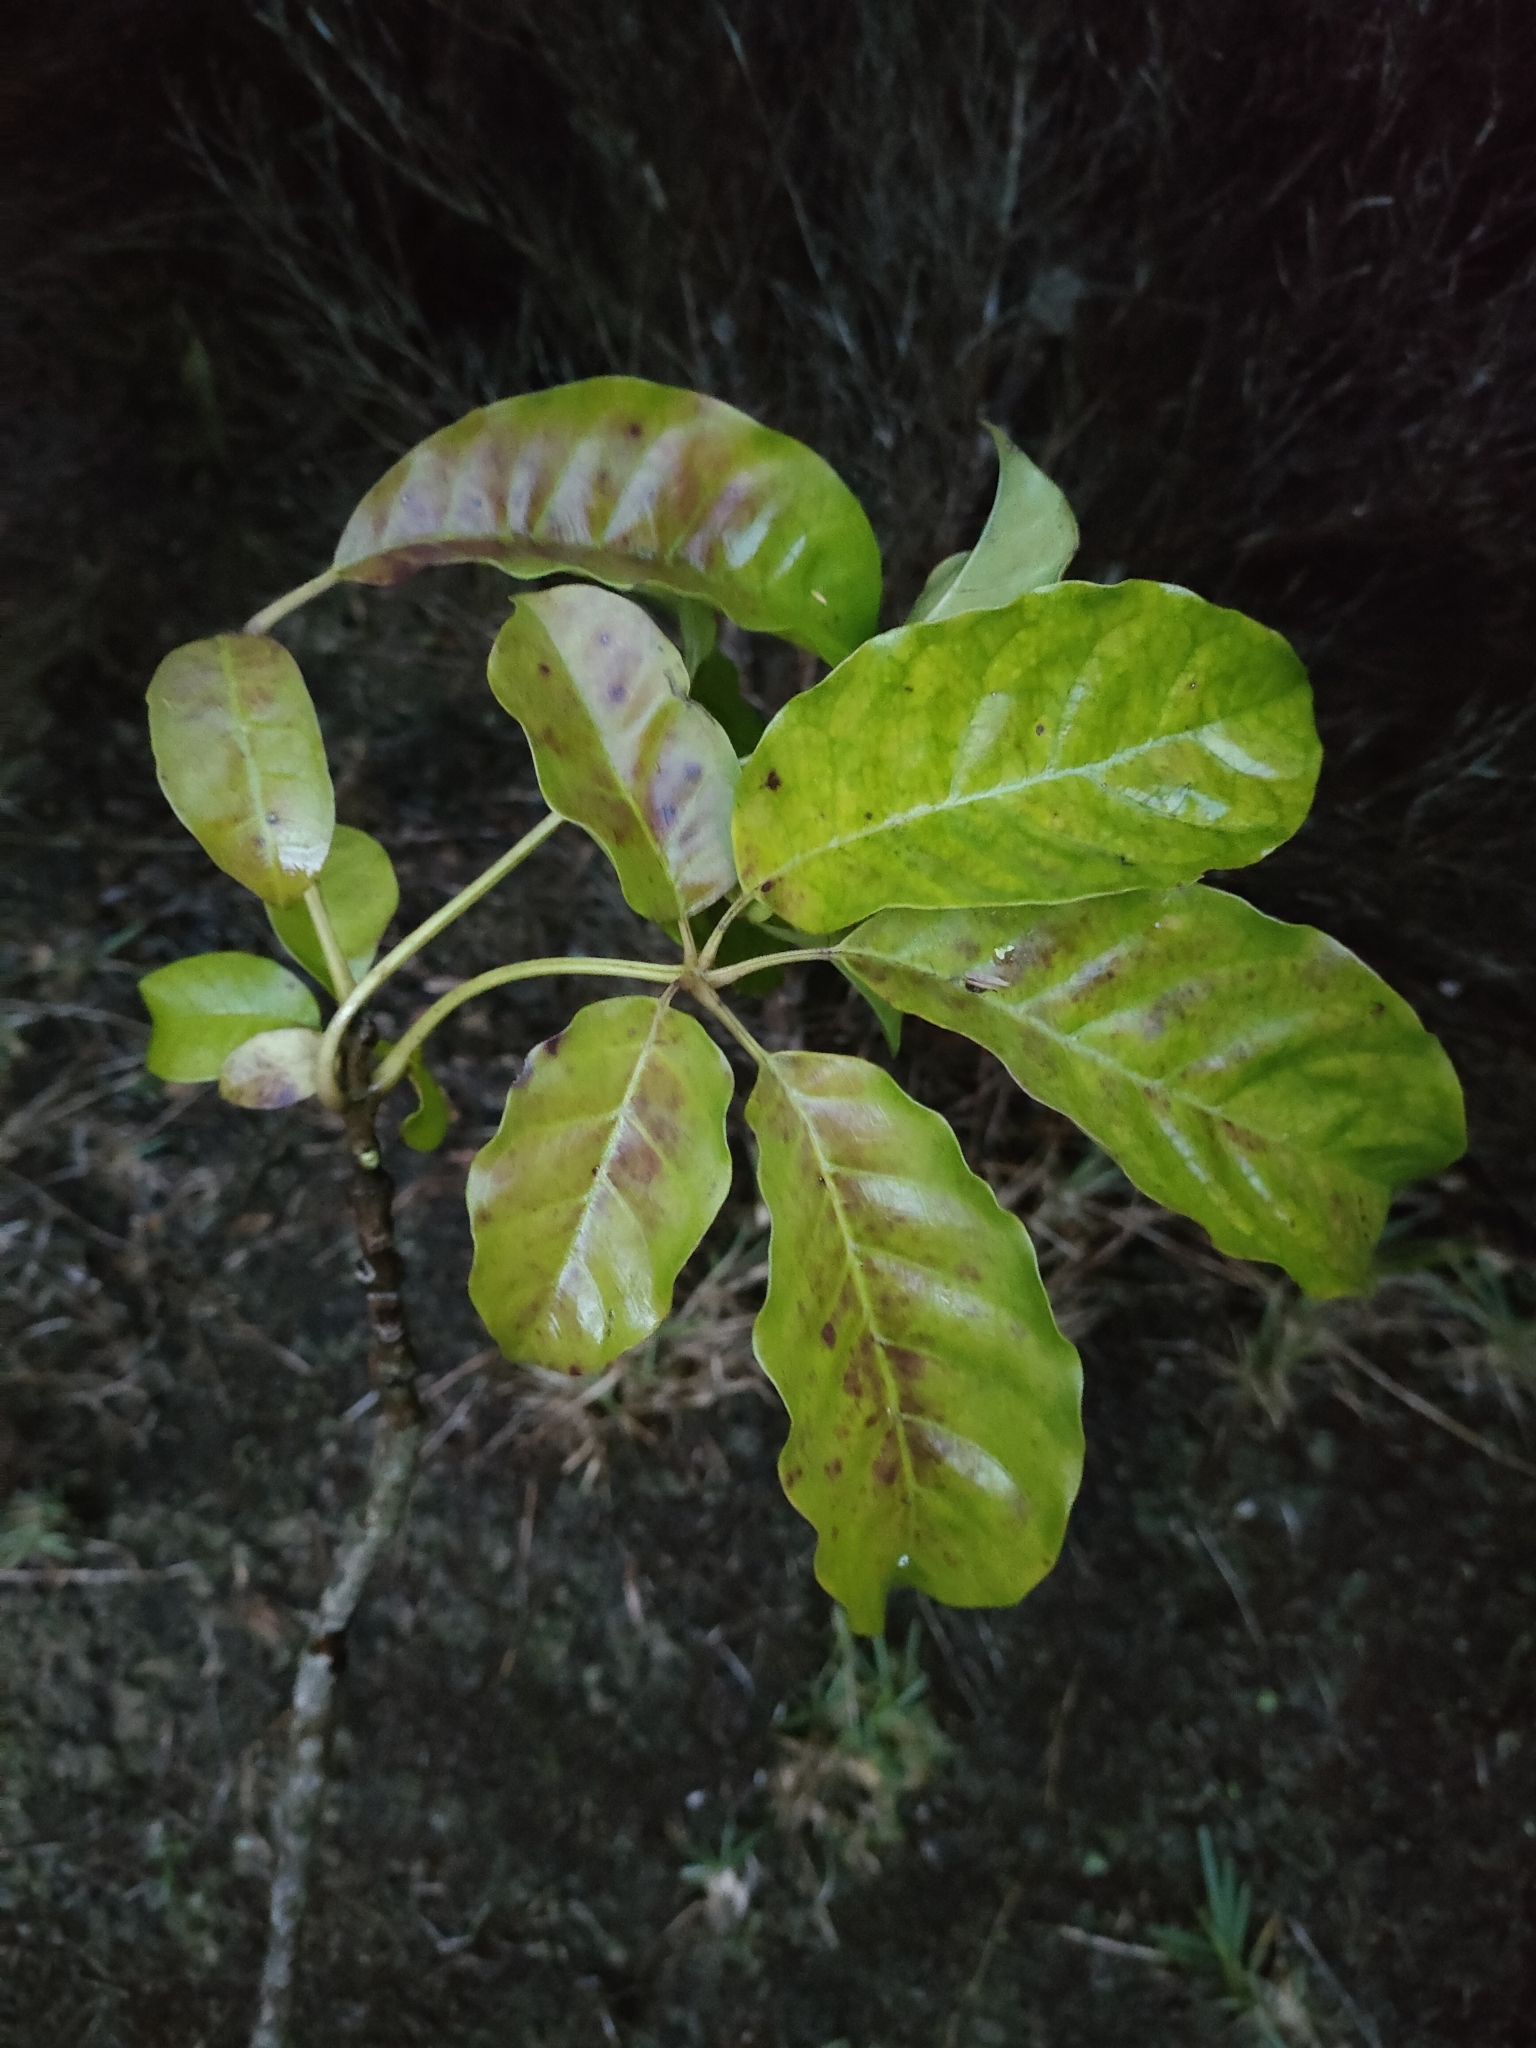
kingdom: Plantae
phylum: Tracheophyta
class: Magnoliopsida
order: Lamiales
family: Lamiaceae
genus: Vitex
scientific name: Vitex lucens
